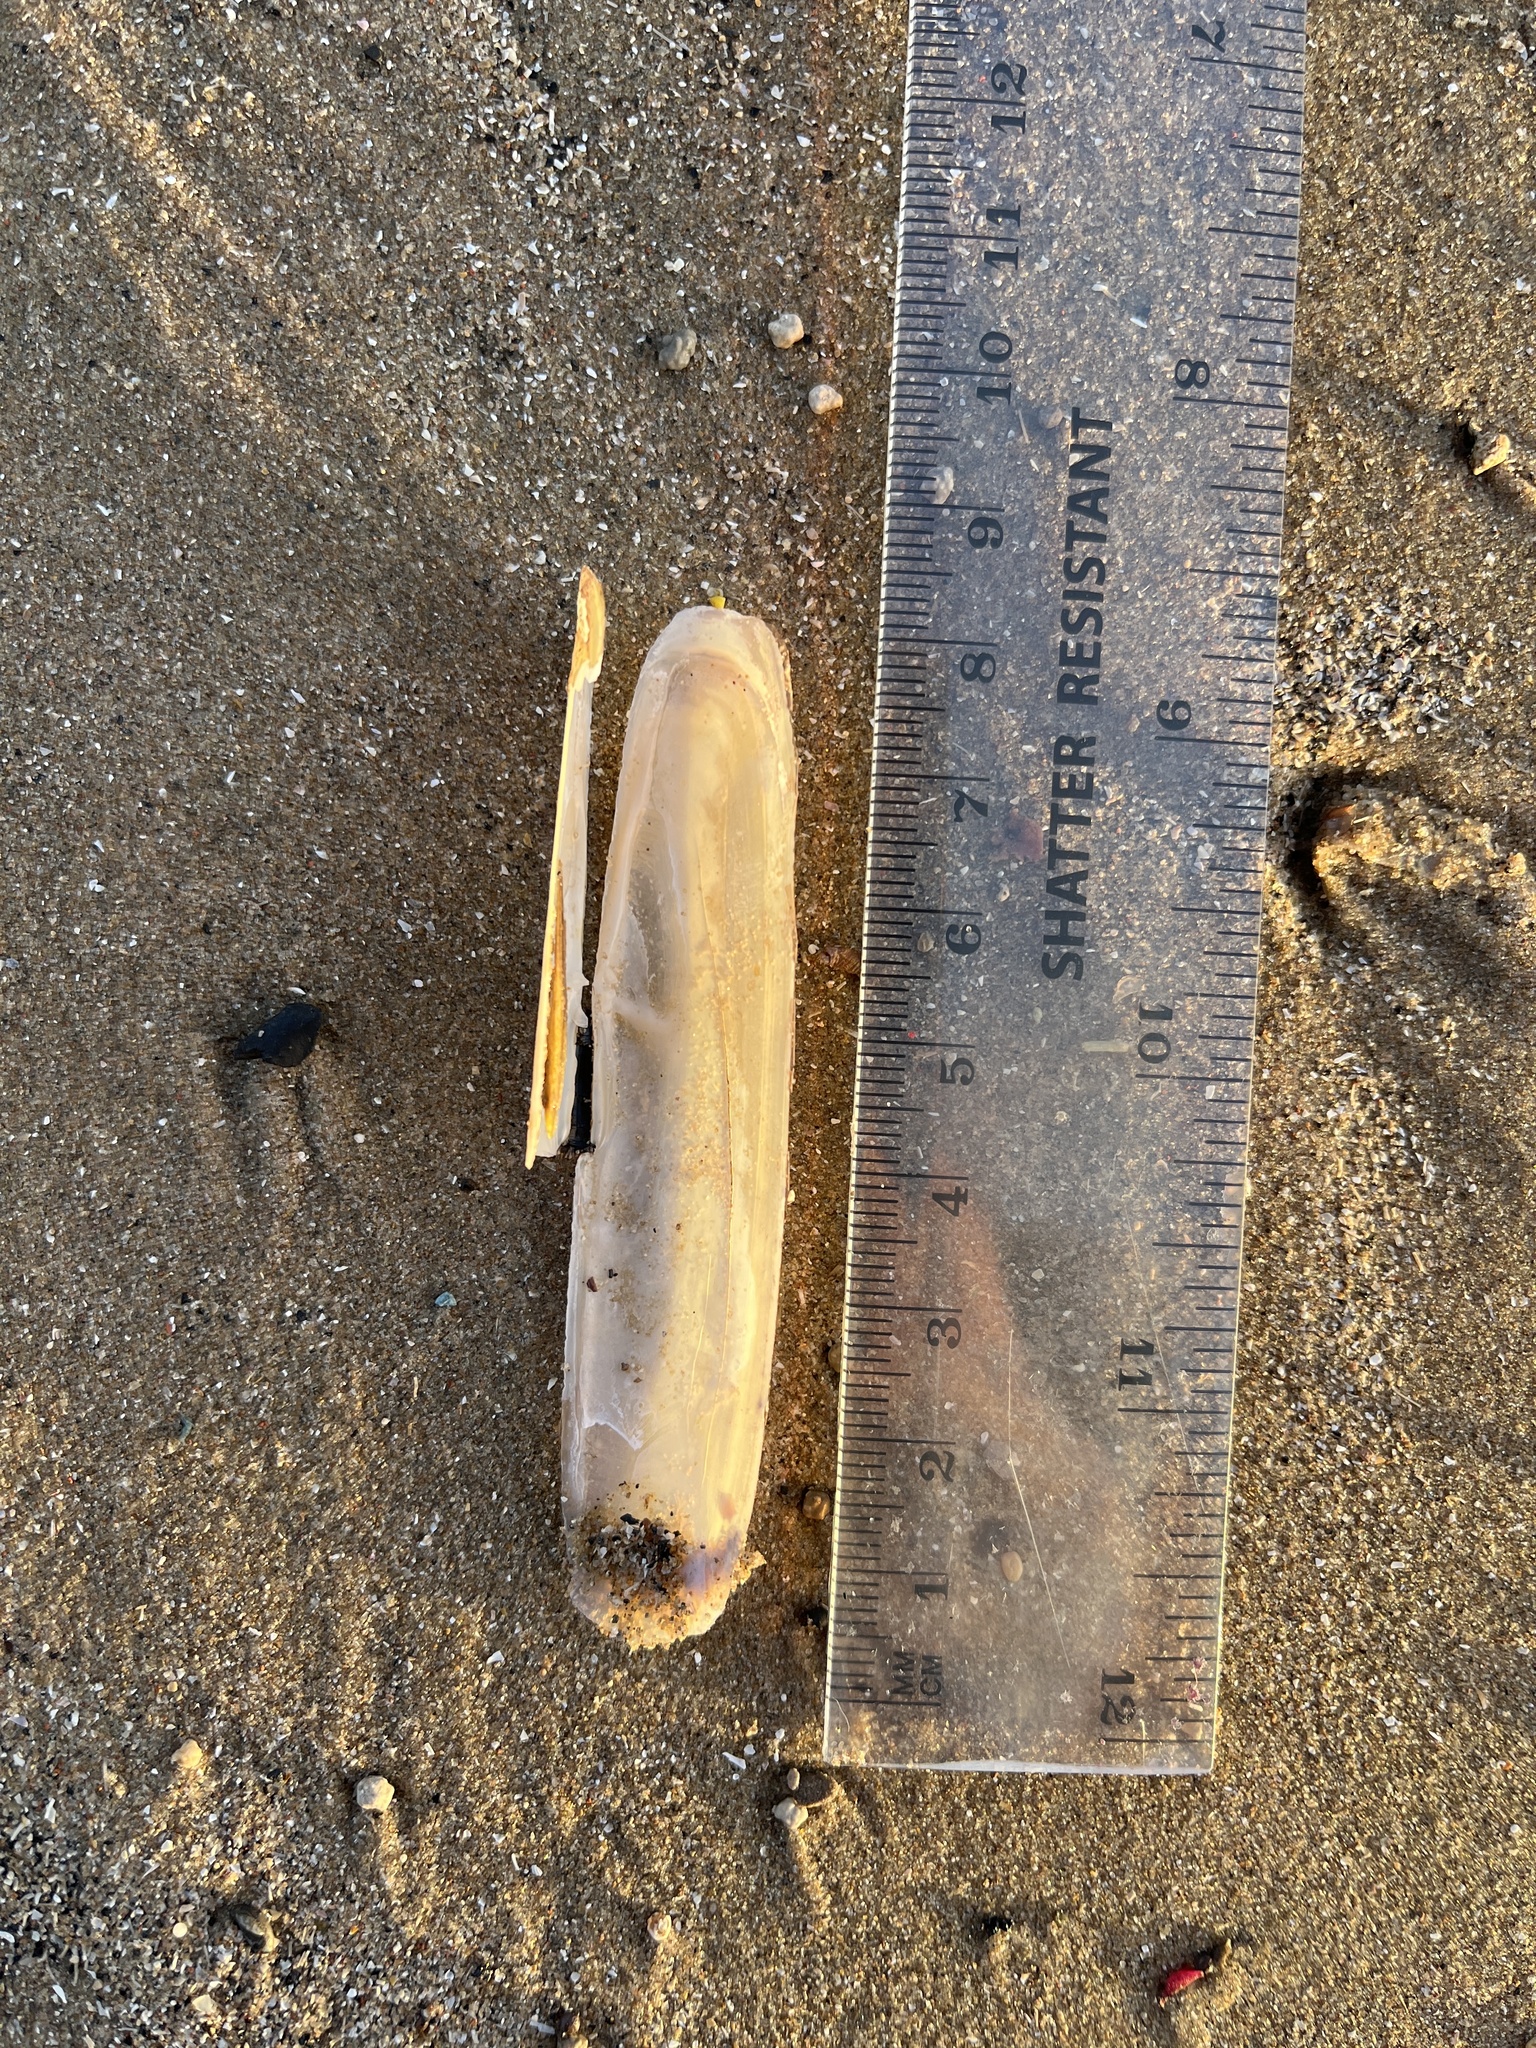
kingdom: Animalia
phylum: Mollusca
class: Bivalvia
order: Adapedonta
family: Pharidae
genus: Pharus
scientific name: Pharus legumen
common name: Bean razor clam
